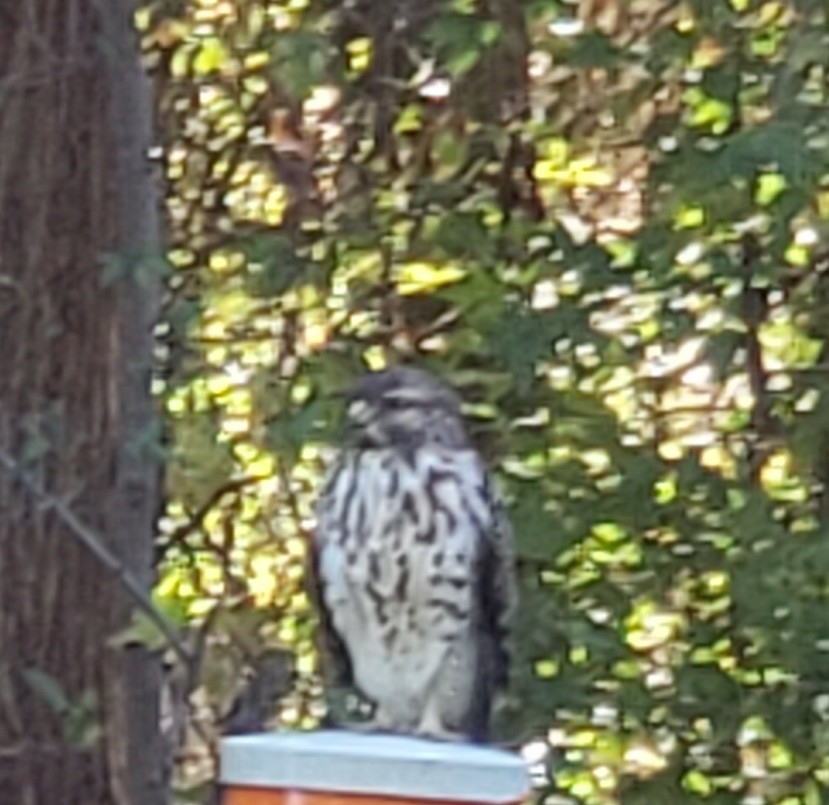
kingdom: Animalia
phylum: Chordata
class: Aves
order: Accipitriformes
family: Accipitridae
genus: Buteo
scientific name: Buteo lineatus
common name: Red-shouldered hawk
